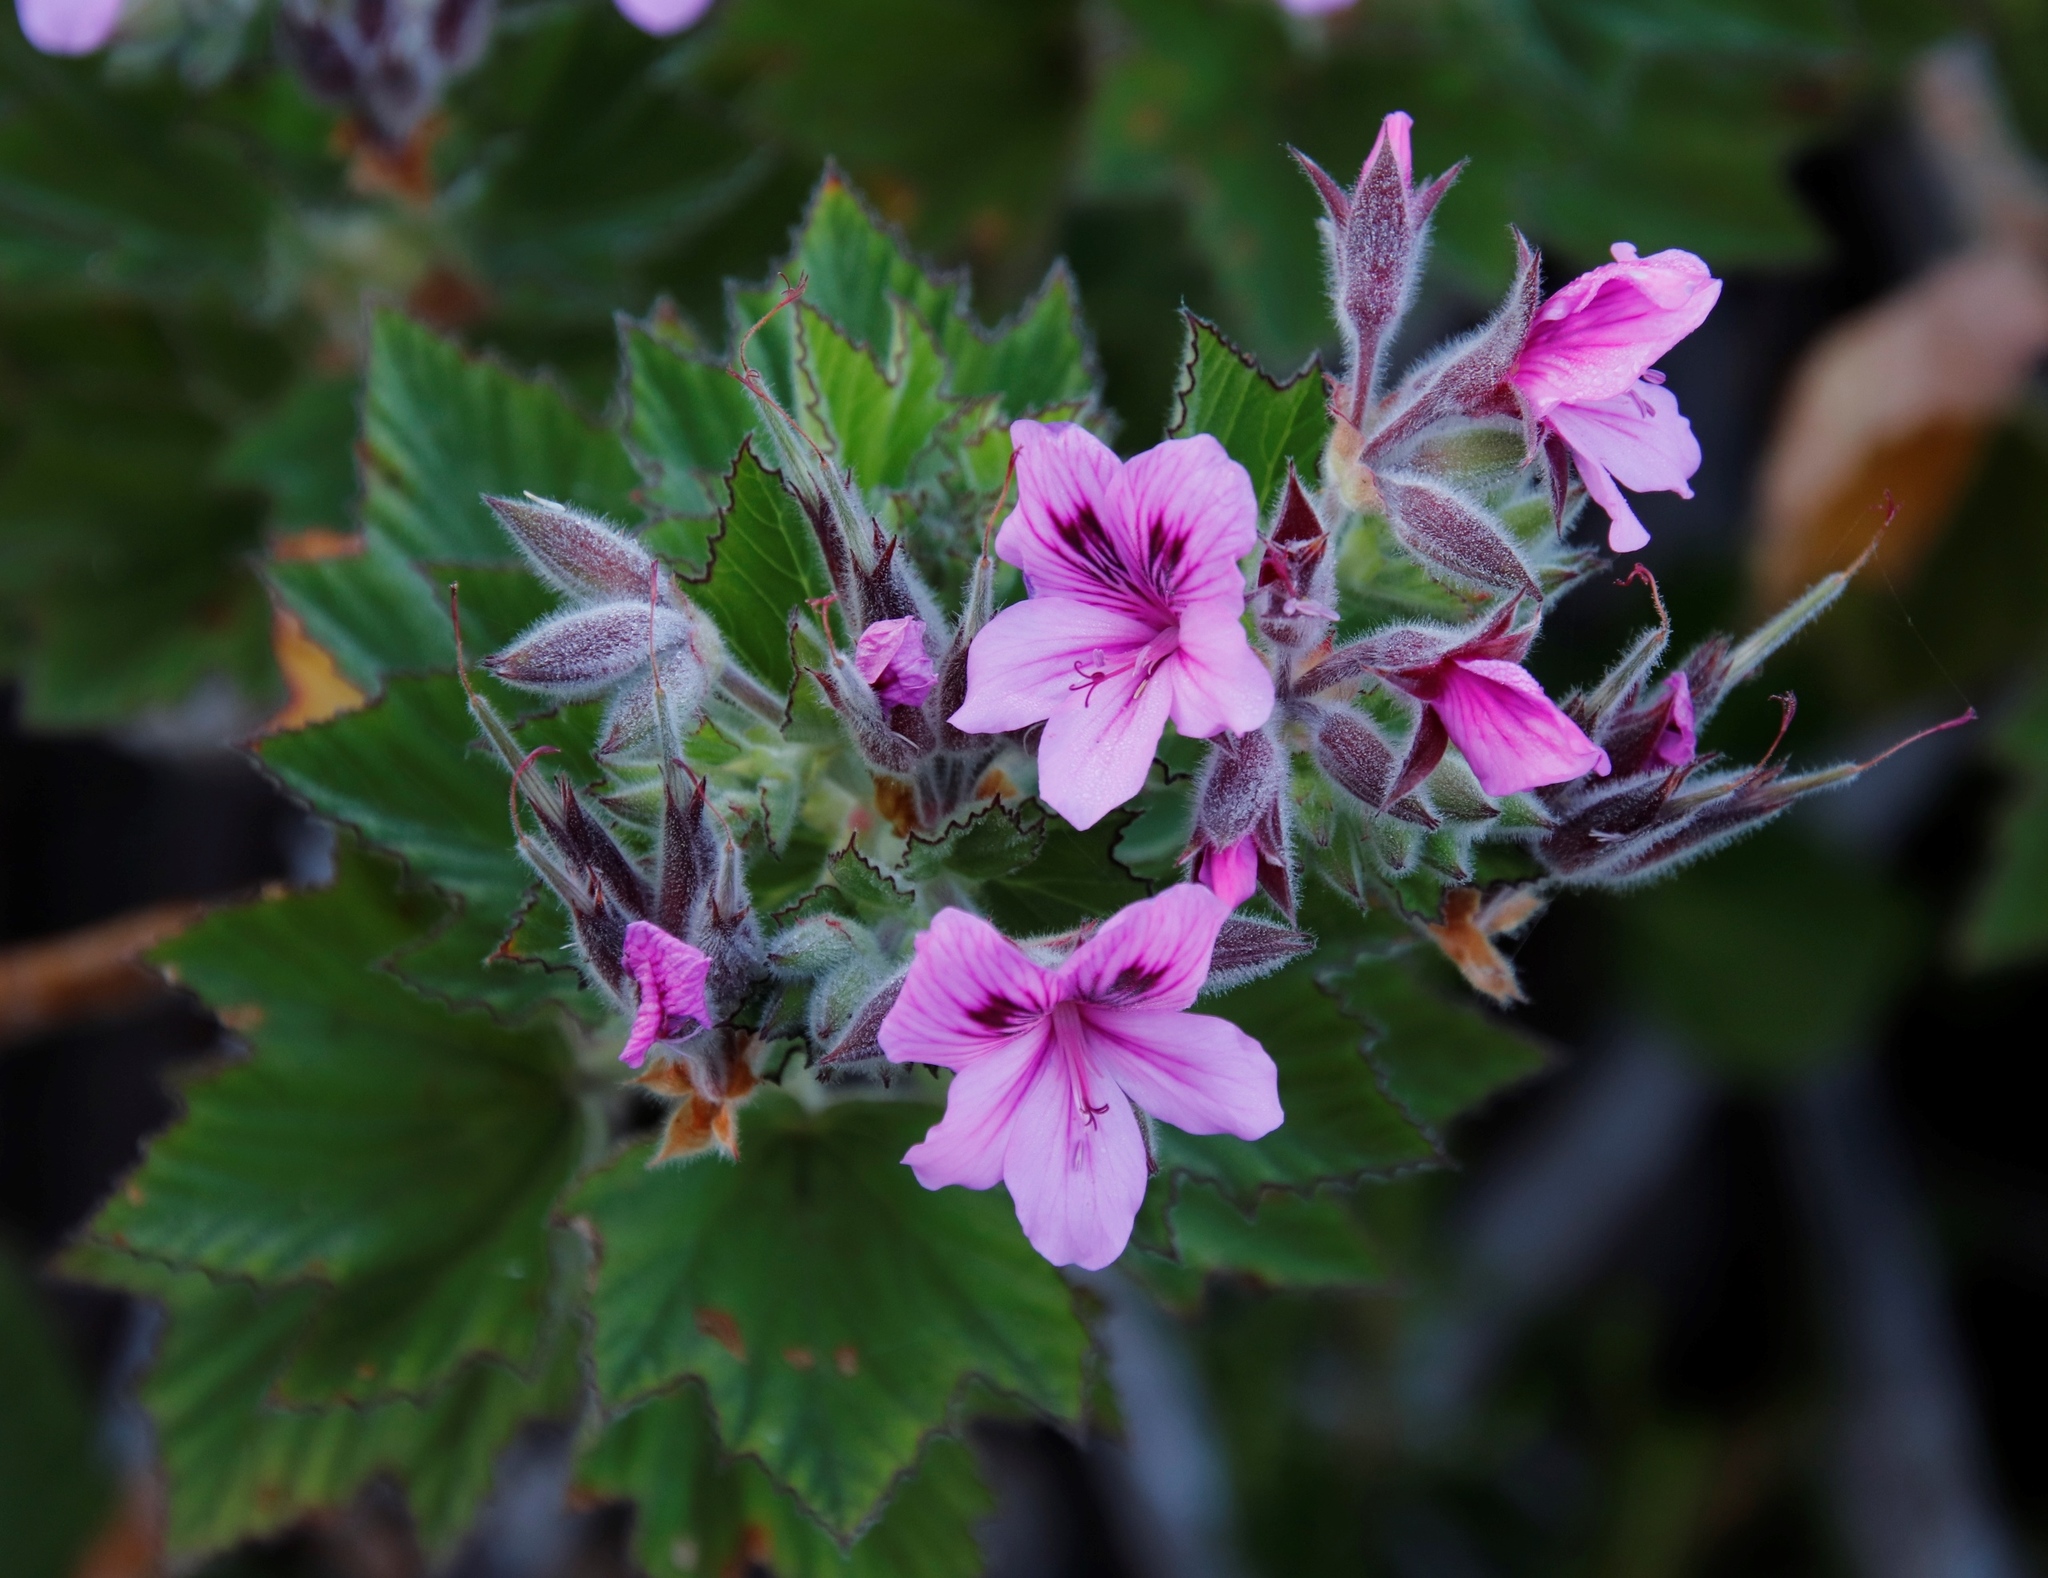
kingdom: Plantae
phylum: Tracheophyta
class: Magnoliopsida
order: Geraniales
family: Geraniaceae
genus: Pelargonium
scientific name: Pelargonium cucullatum
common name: Tree pelargonium
